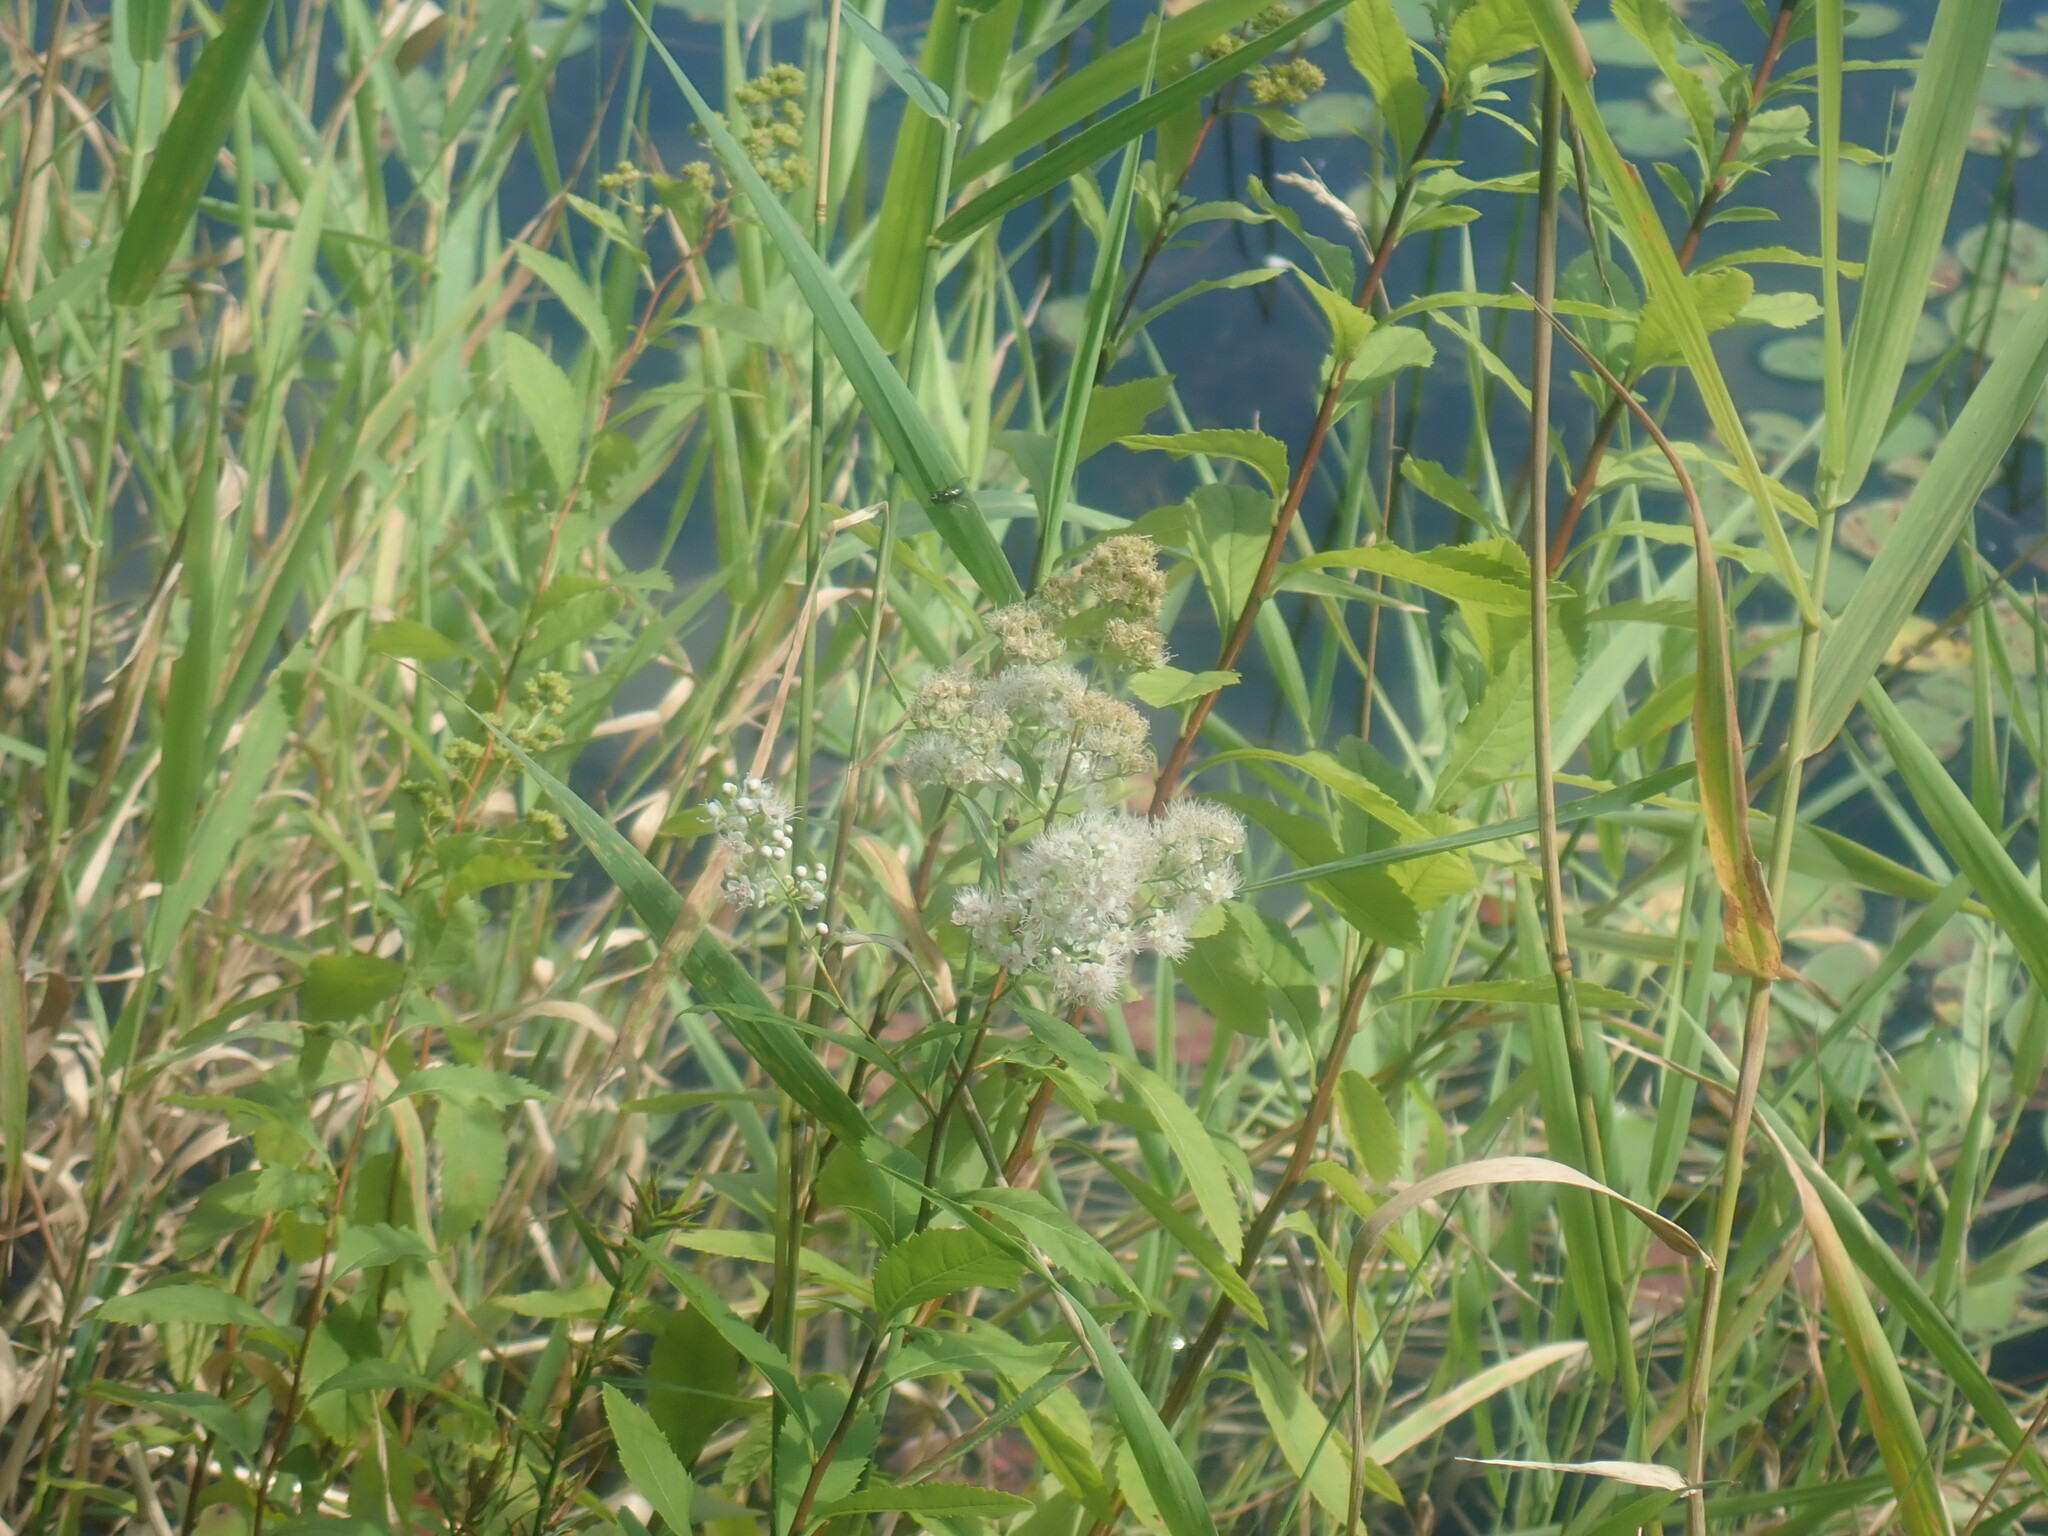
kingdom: Plantae
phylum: Tracheophyta
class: Magnoliopsida
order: Rosales
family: Rosaceae
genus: Spiraea
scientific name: Spiraea alba
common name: Pale bridewort
